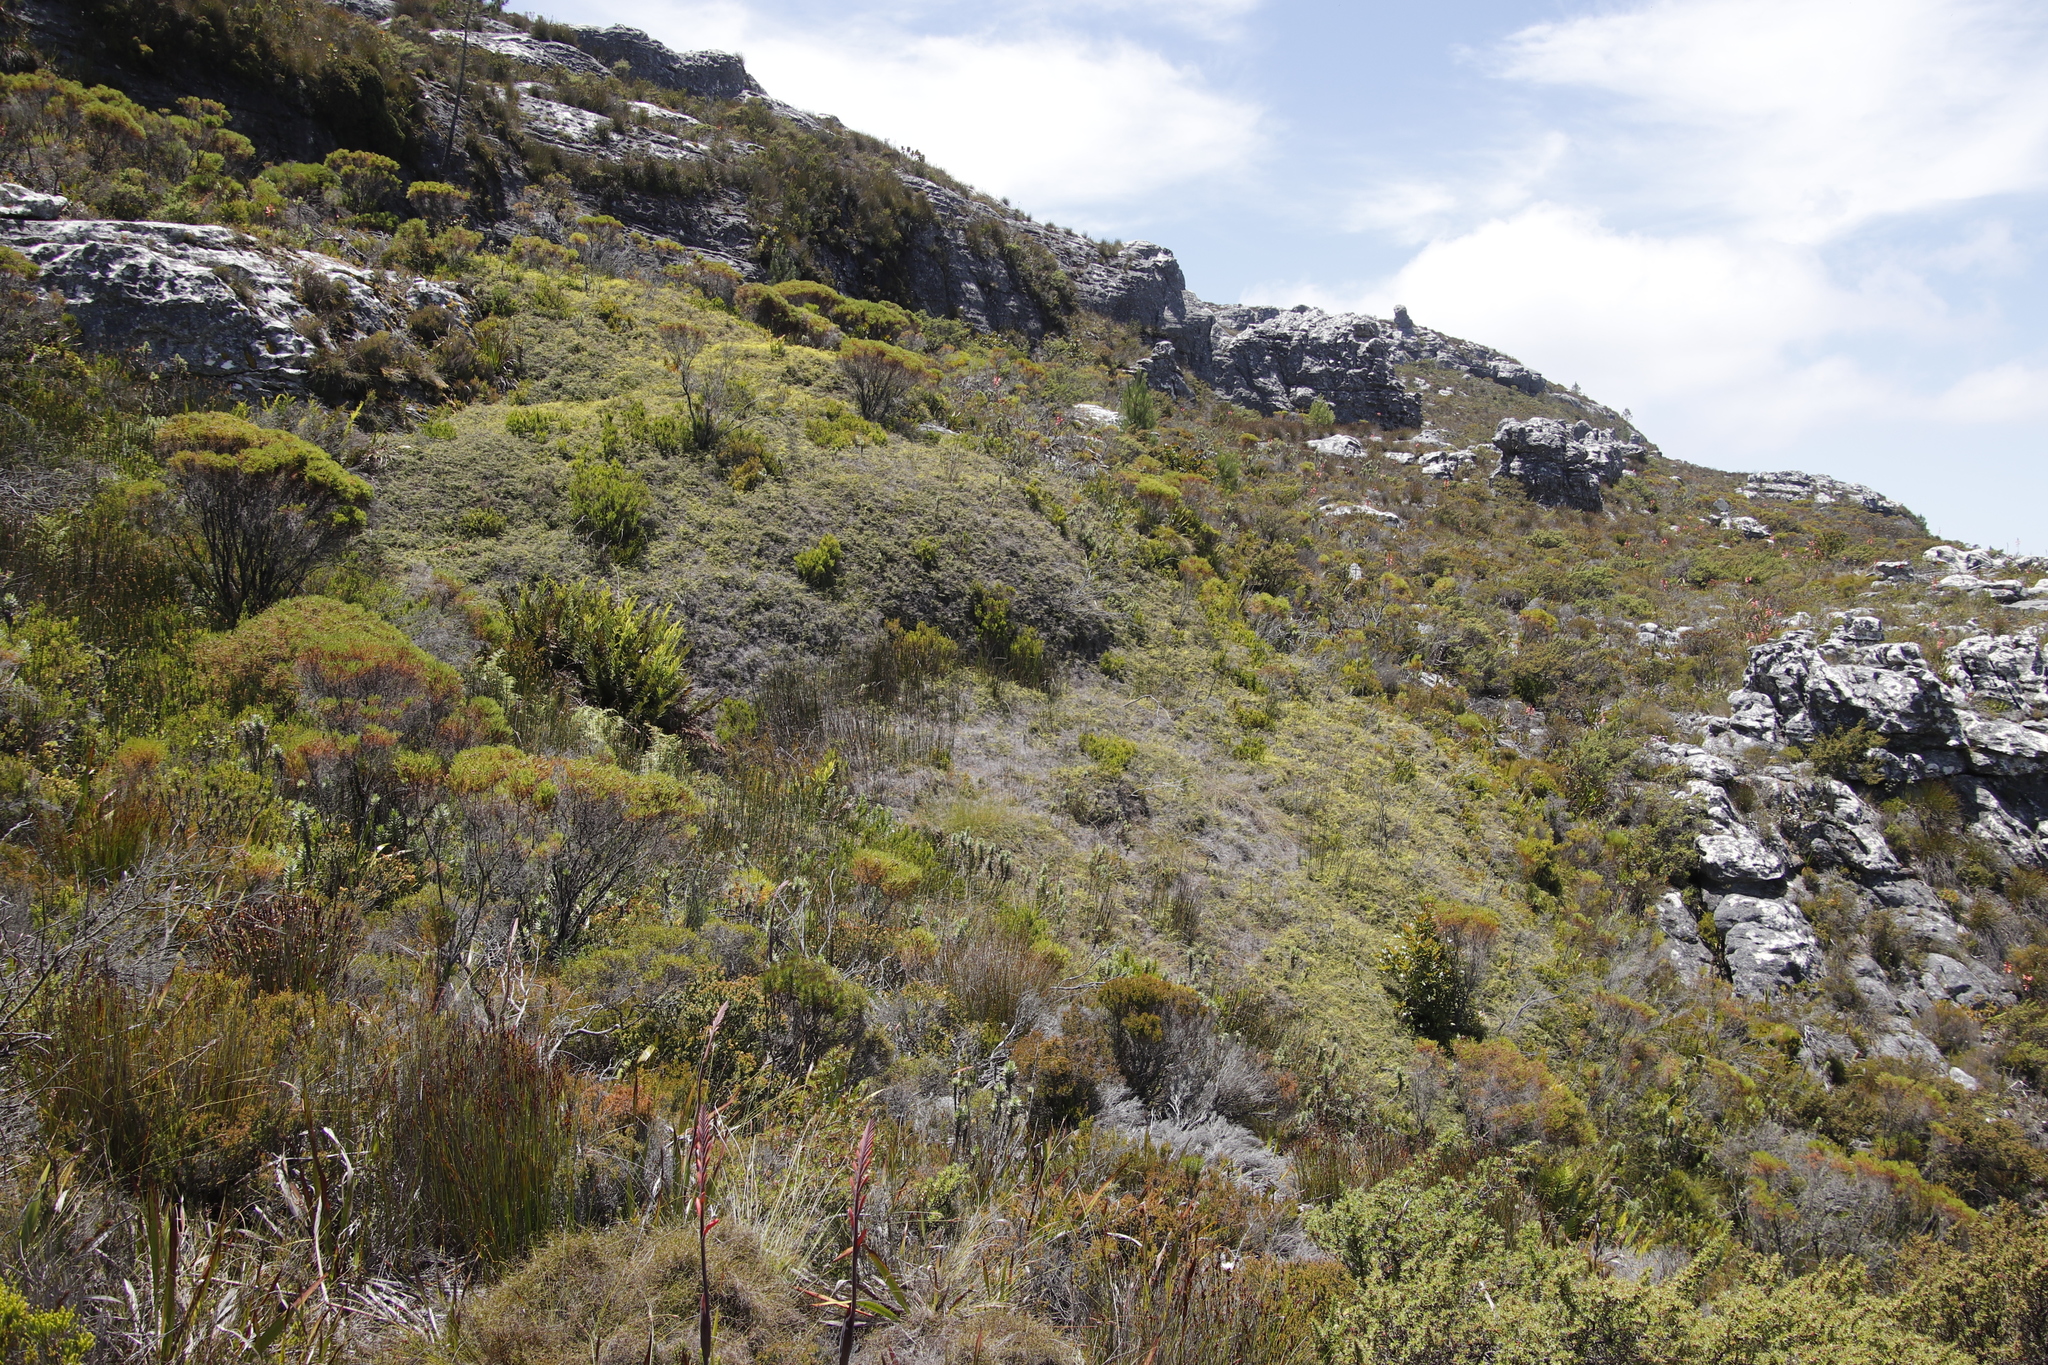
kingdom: Plantae
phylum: Tracheophyta
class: Polypodiopsida
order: Gleicheniales
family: Gleicheniaceae
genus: Gleichenia
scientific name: Gleichenia polypodioides
